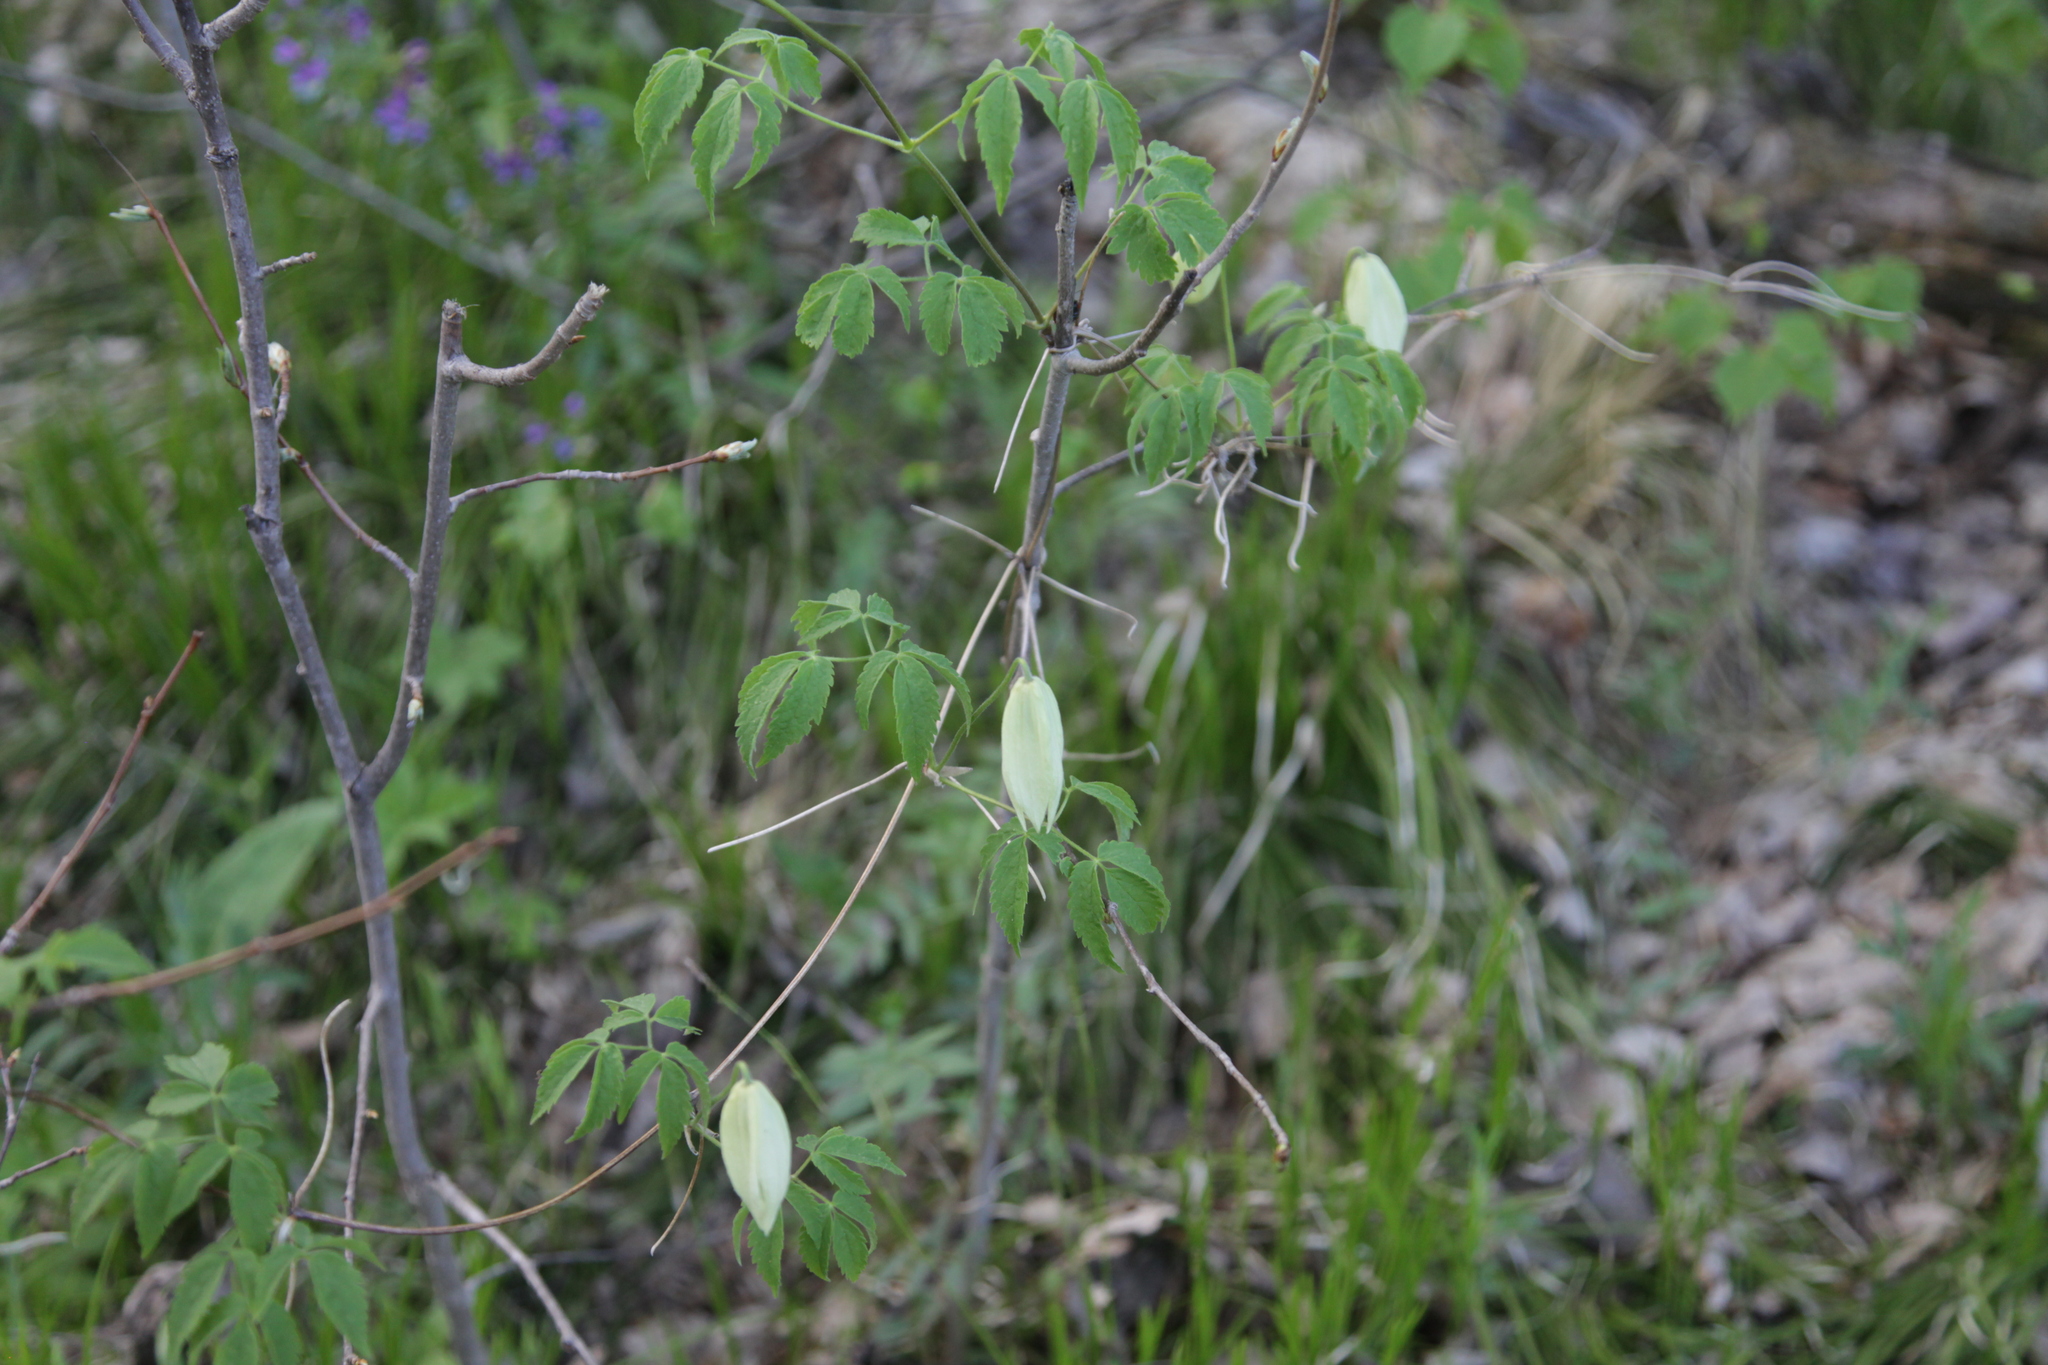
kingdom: Plantae
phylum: Tracheophyta
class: Magnoliopsida
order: Ranunculales
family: Ranunculaceae
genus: Clematis
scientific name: Clematis sibirica
